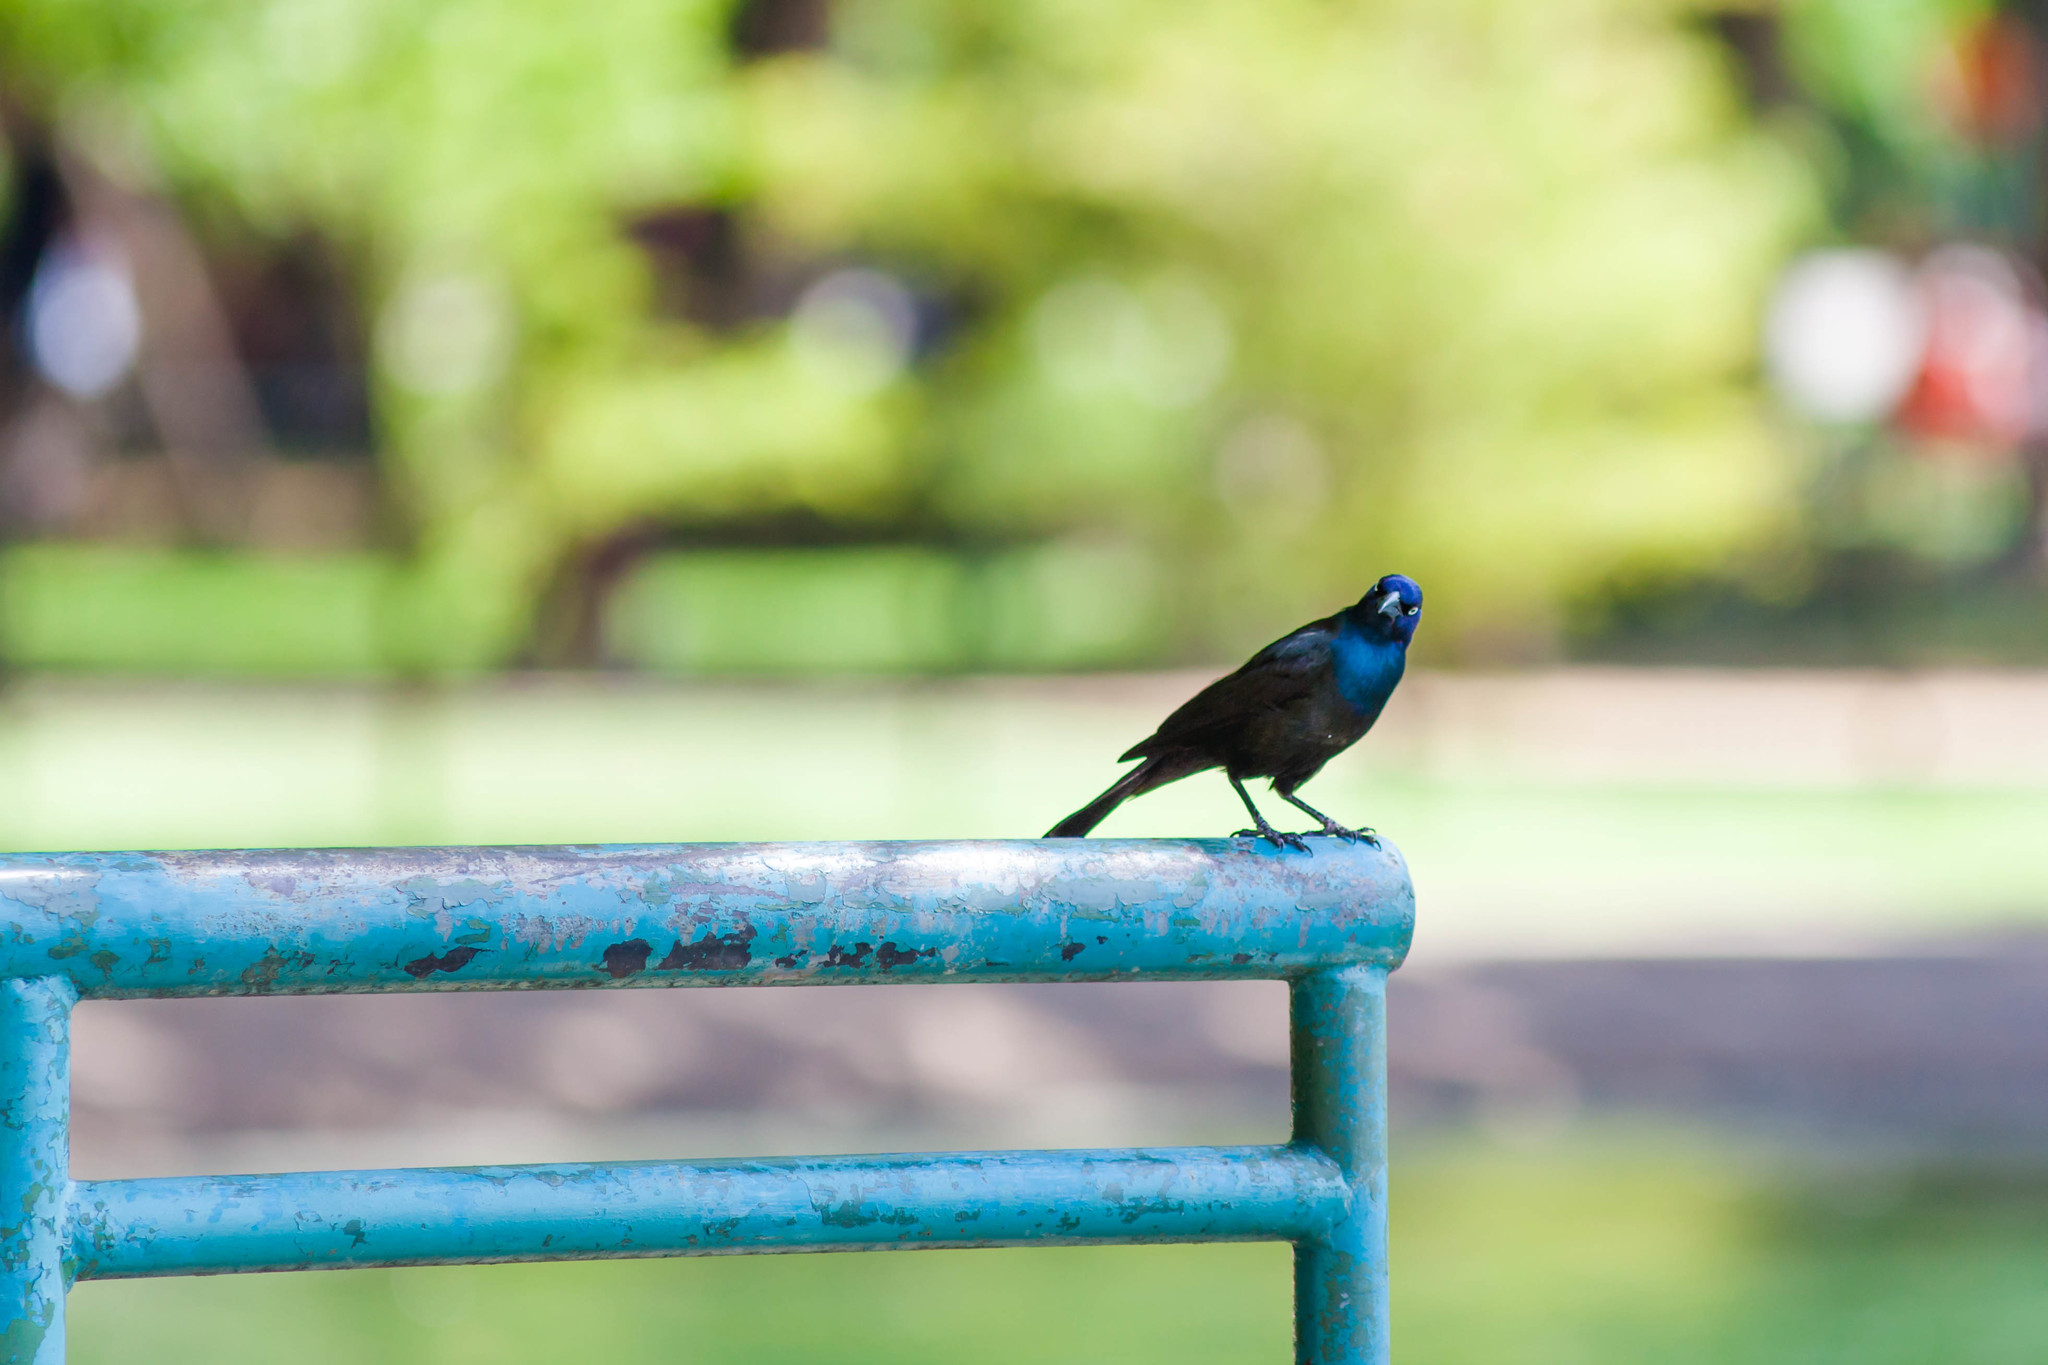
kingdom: Animalia
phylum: Chordata
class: Aves
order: Passeriformes
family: Icteridae
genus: Quiscalus
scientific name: Quiscalus quiscula
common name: Common grackle
